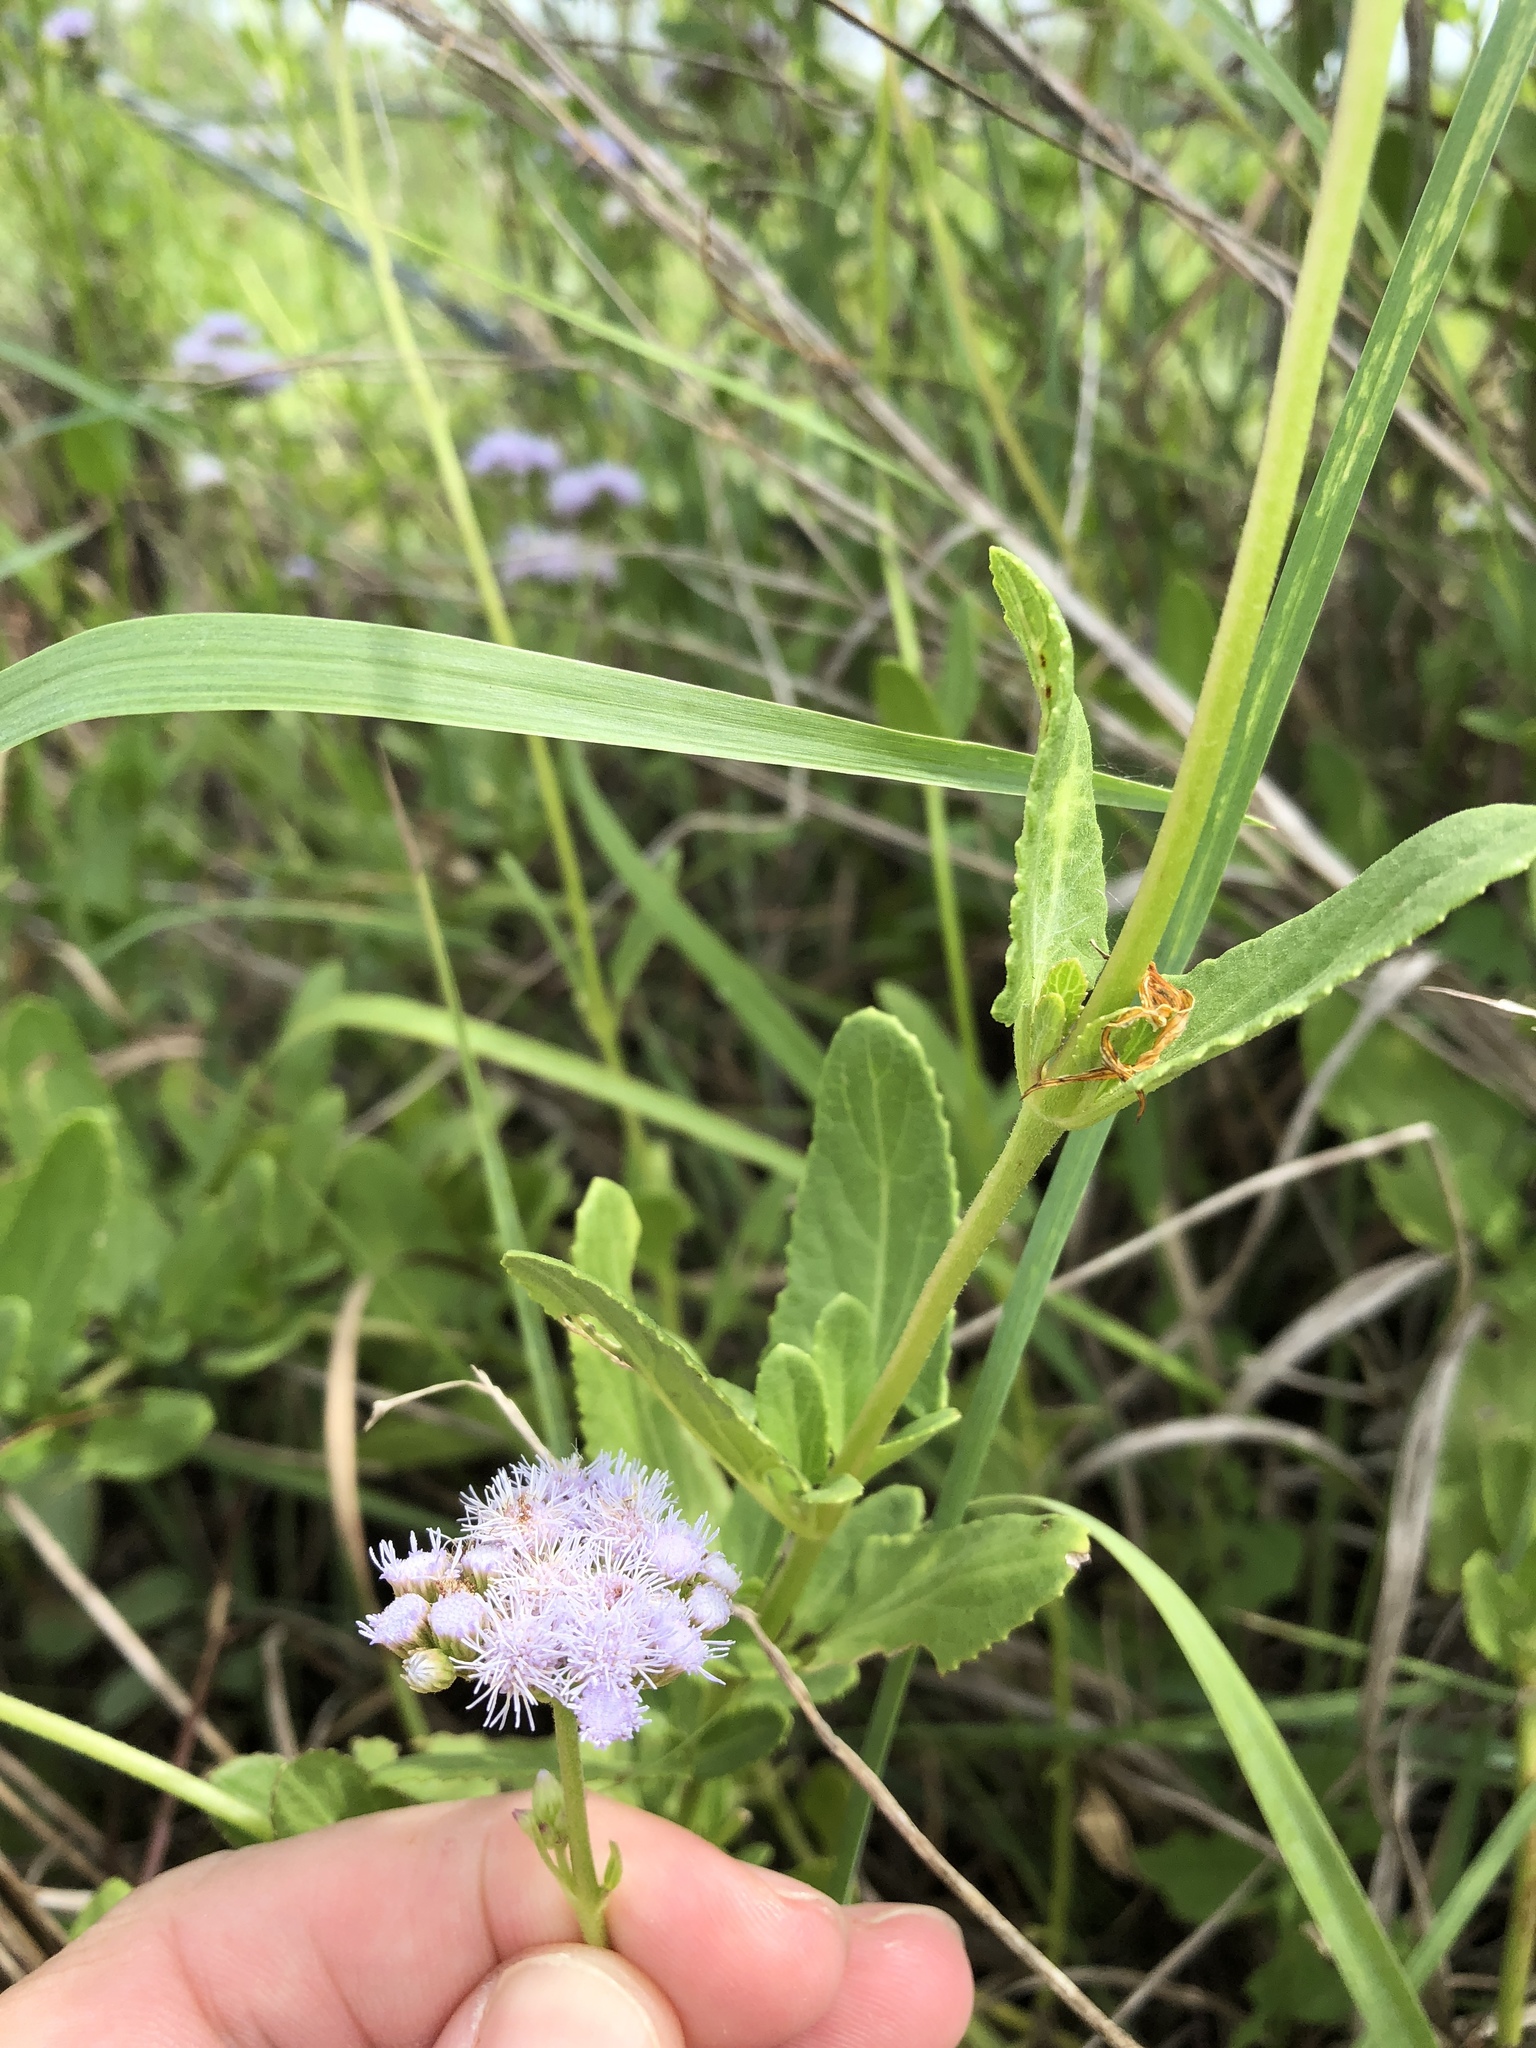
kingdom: Plantae
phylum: Tracheophyta
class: Magnoliopsida
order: Asterales
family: Asteraceae
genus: Conoclinium
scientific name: Conoclinium betonicifolium
